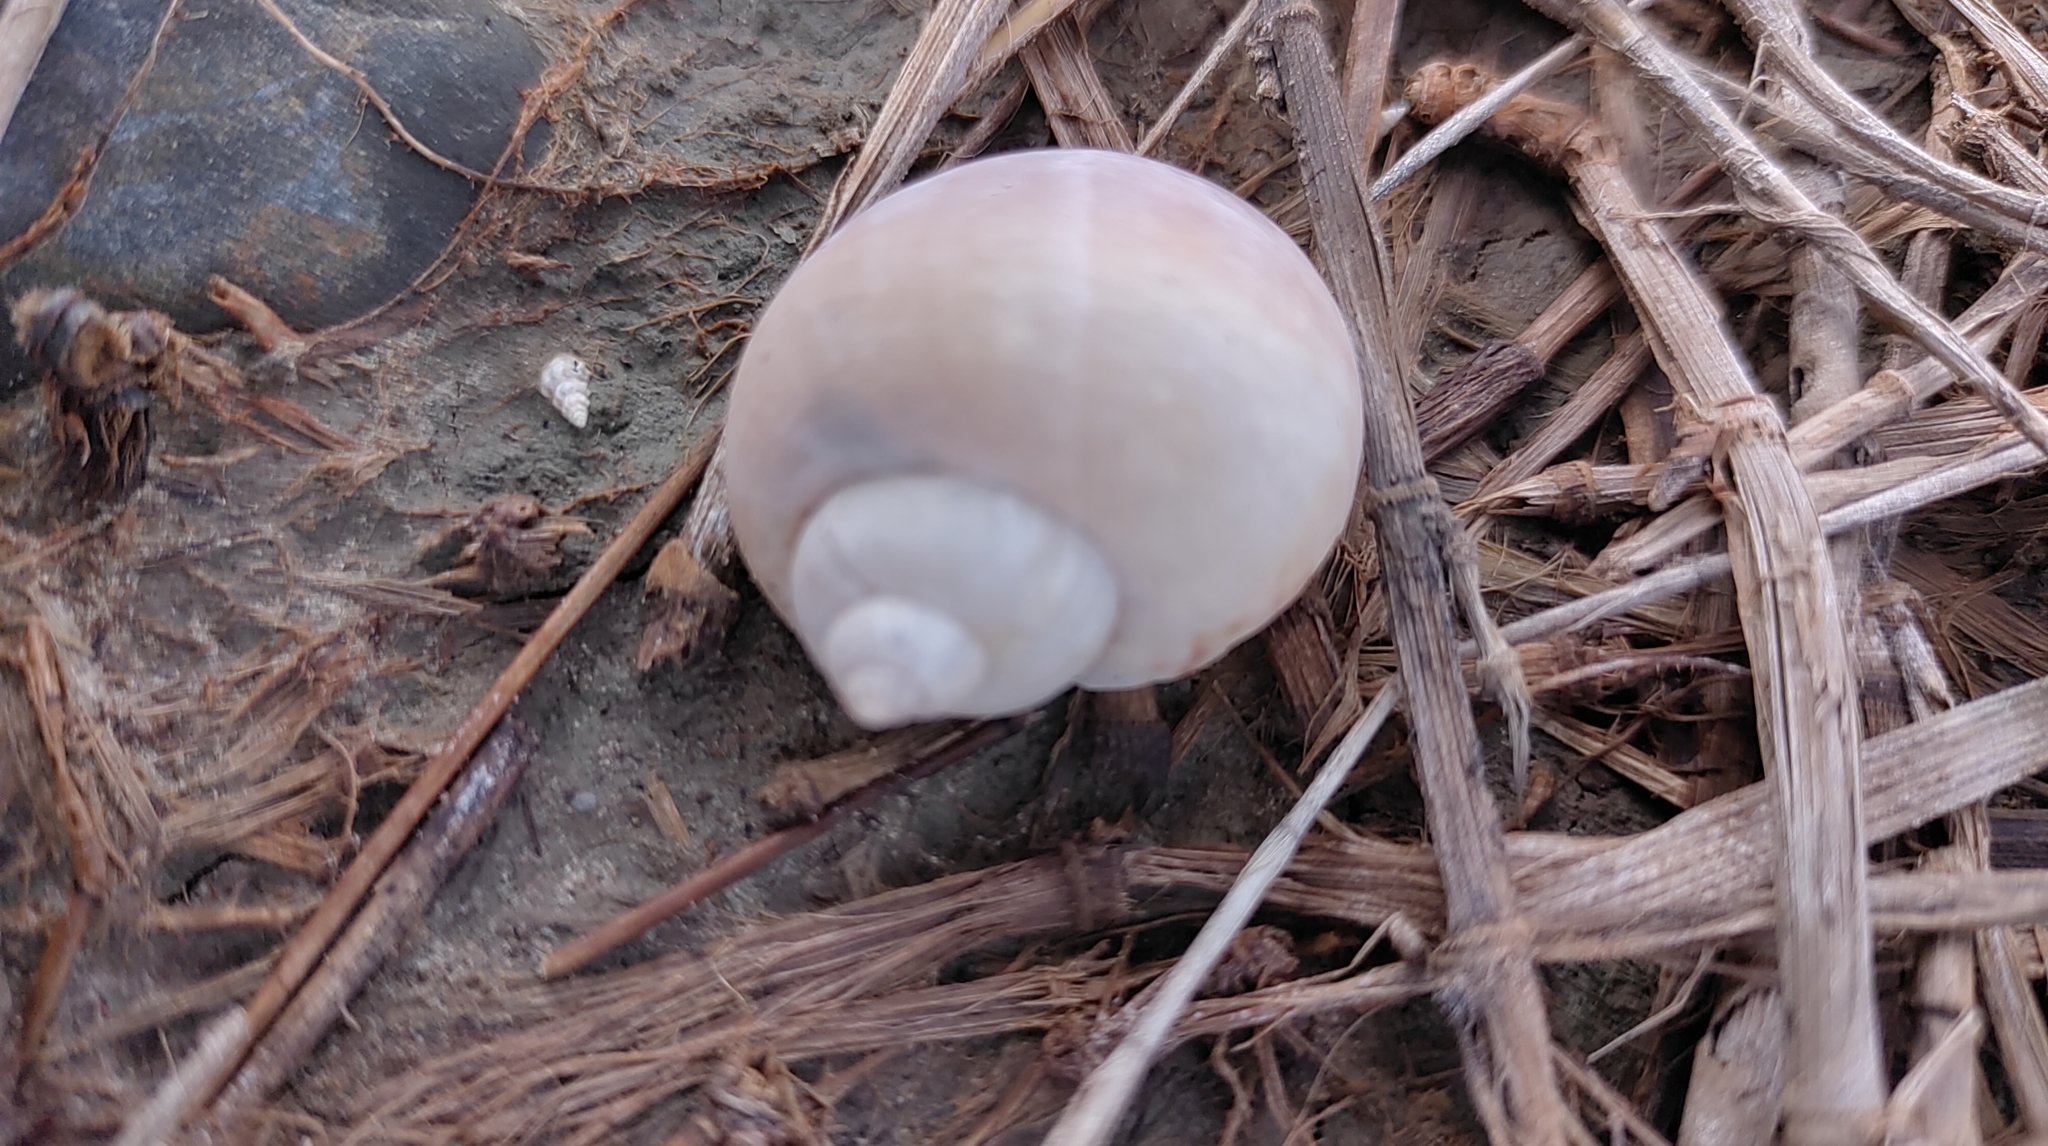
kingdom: Animalia
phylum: Mollusca
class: Gastropoda
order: Architaenioglossa
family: Ampullariidae
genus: Pomacea
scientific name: Pomacea canaliculata
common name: Channeled applesnail
